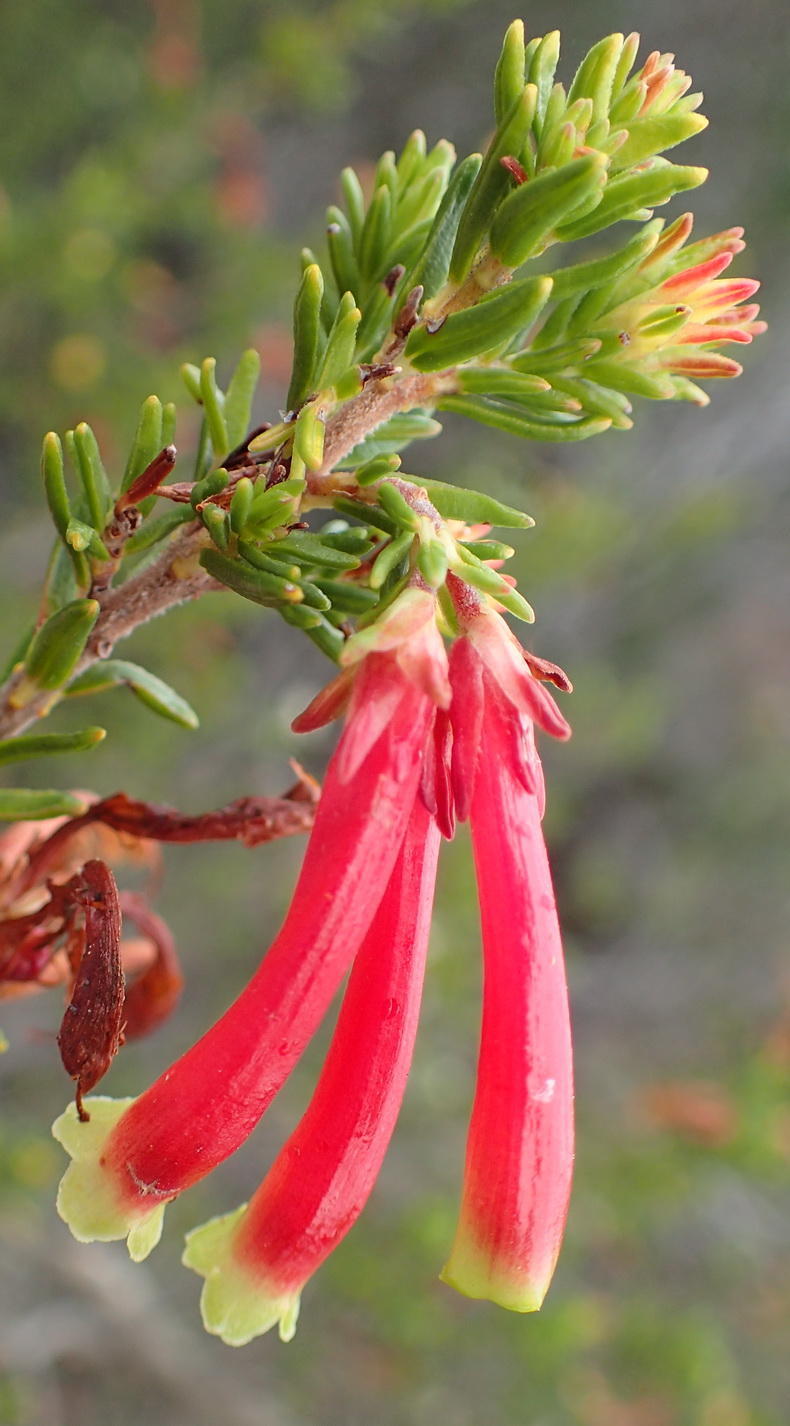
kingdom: Plantae
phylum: Tracheophyta
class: Magnoliopsida
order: Ericales
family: Ericaceae
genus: Erica
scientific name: Erica discolor
